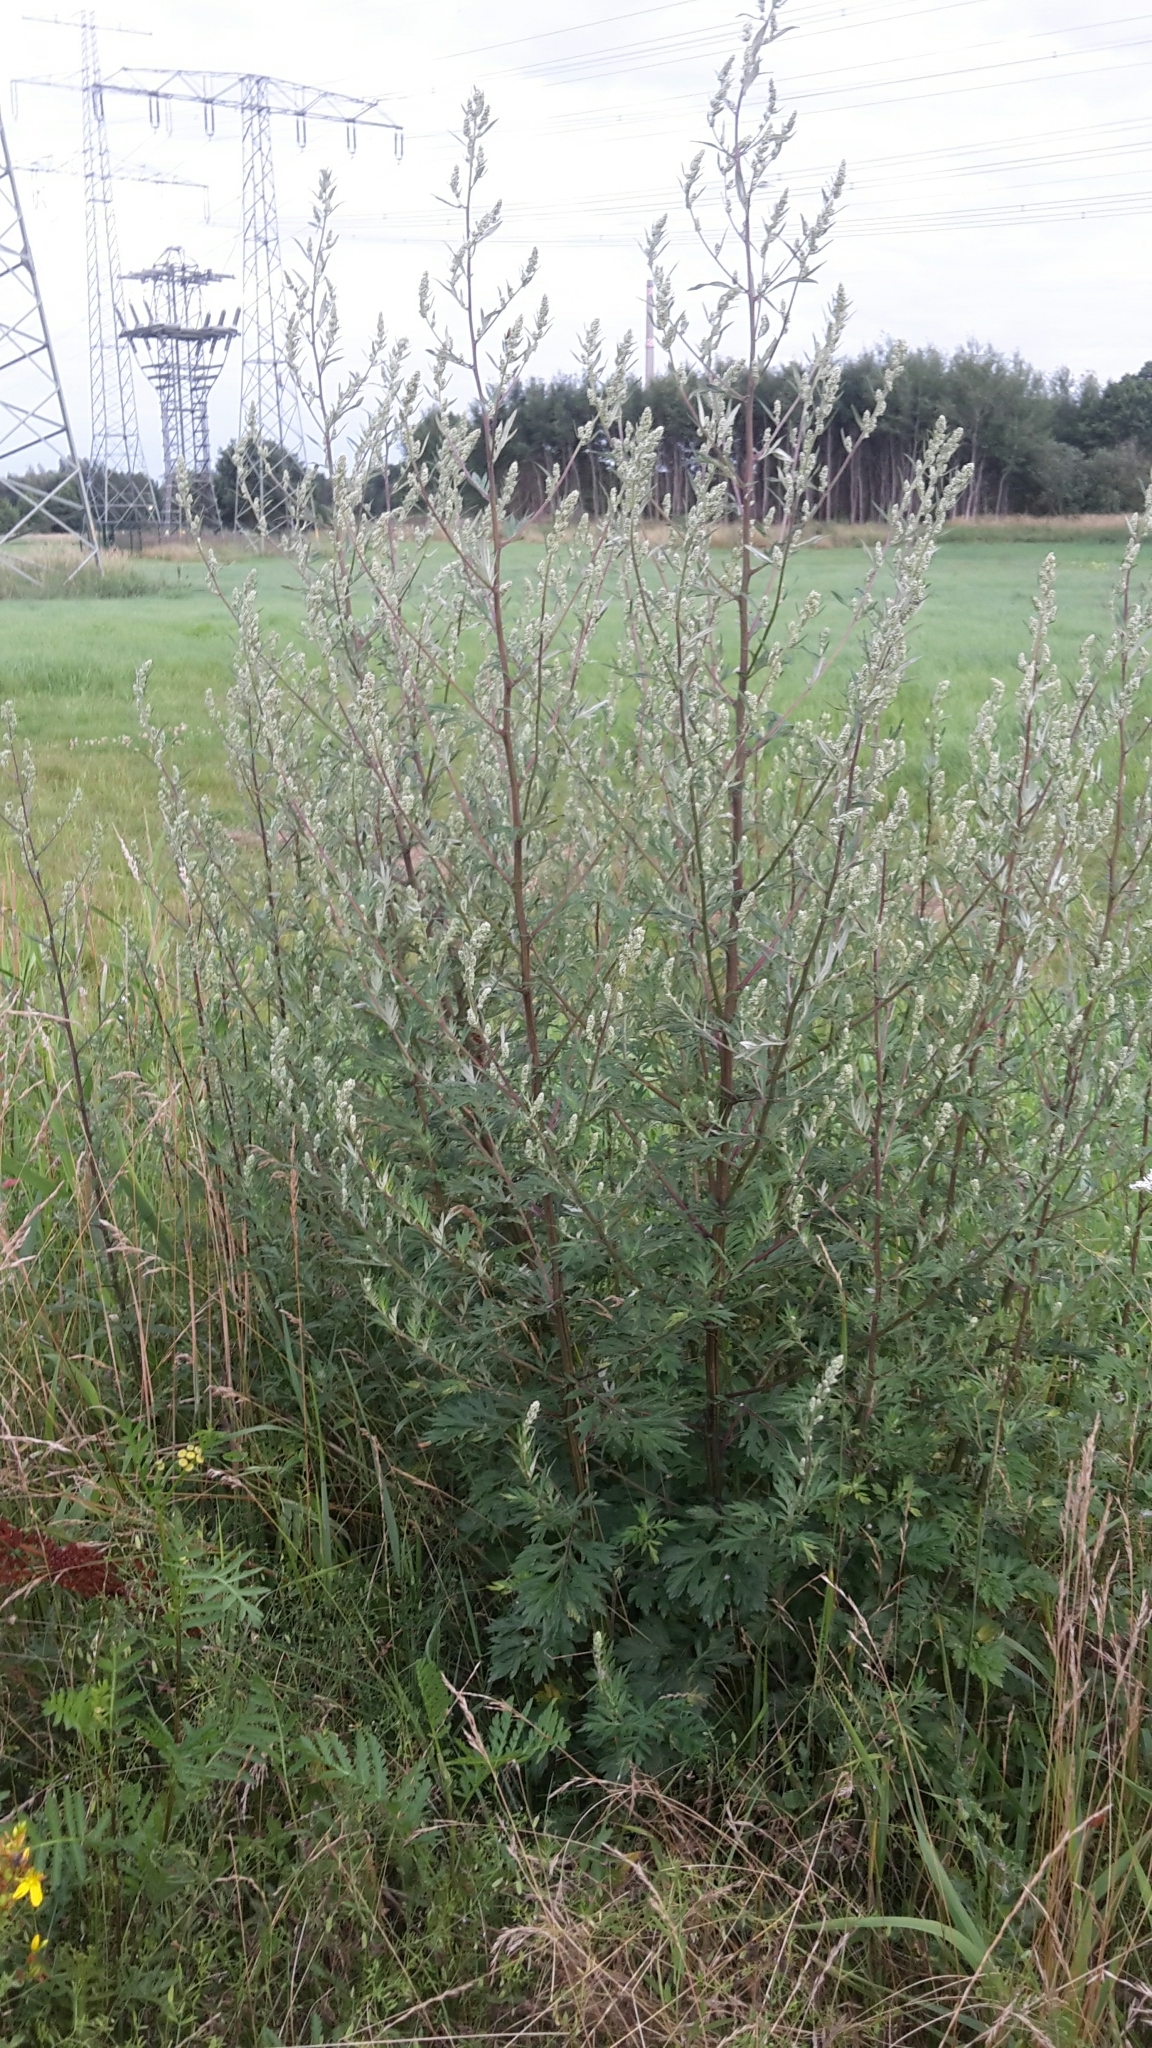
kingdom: Plantae
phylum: Tracheophyta
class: Magnoliopsida
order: Asterales
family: Asteraceae
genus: Artemisia
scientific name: Artemisia vulgaris
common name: Mugwort
